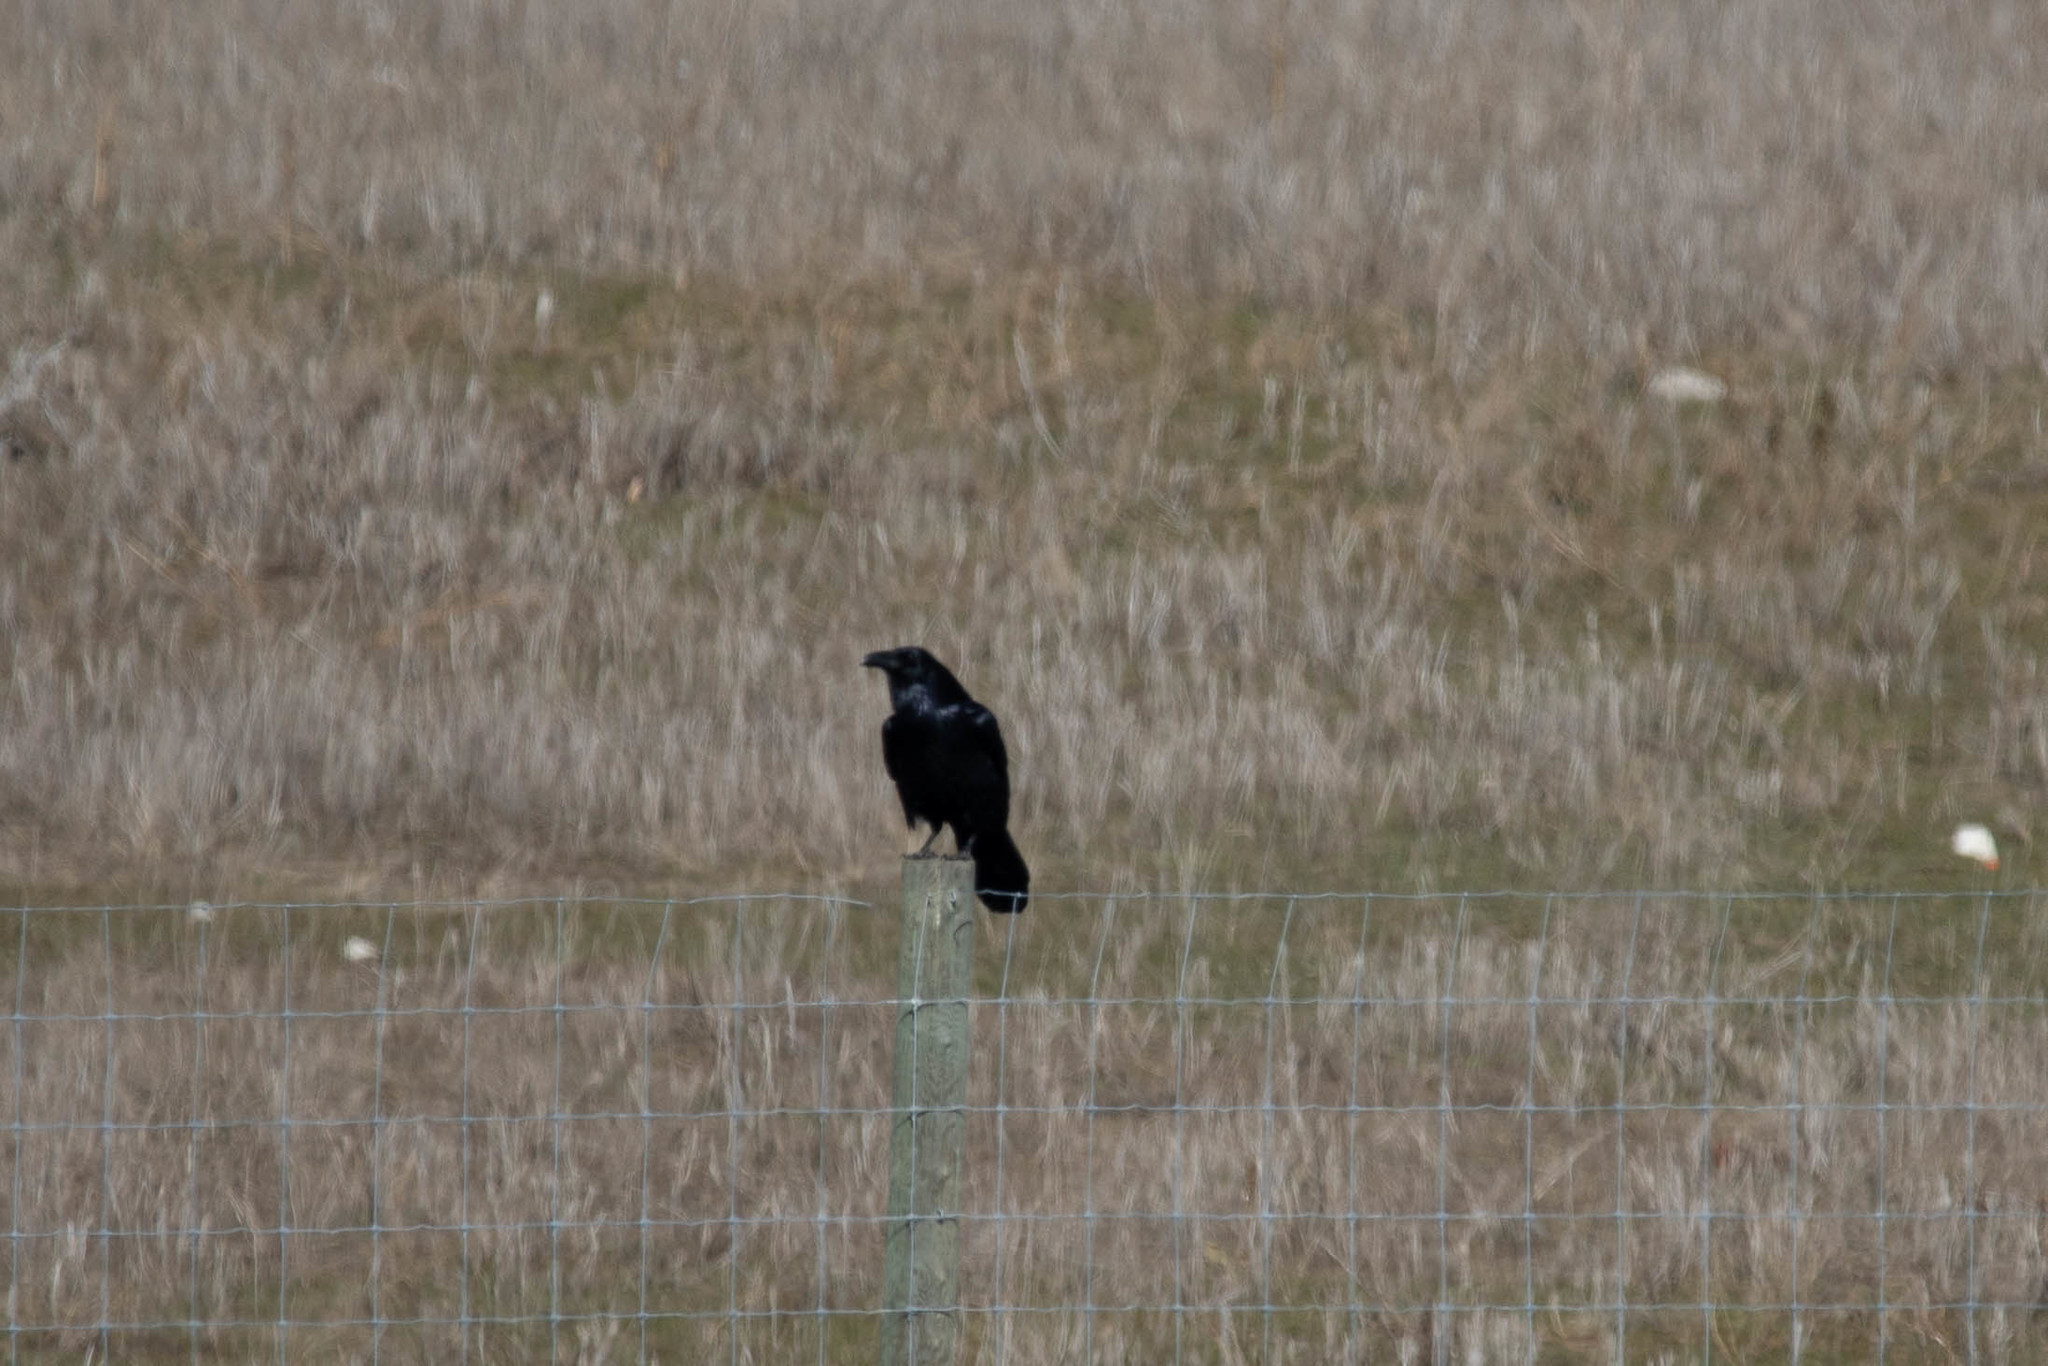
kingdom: Animalia
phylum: Chordata
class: Aves
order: Passeriformes
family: Corvidae
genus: Corvus
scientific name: Corvus corax
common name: Common raven
